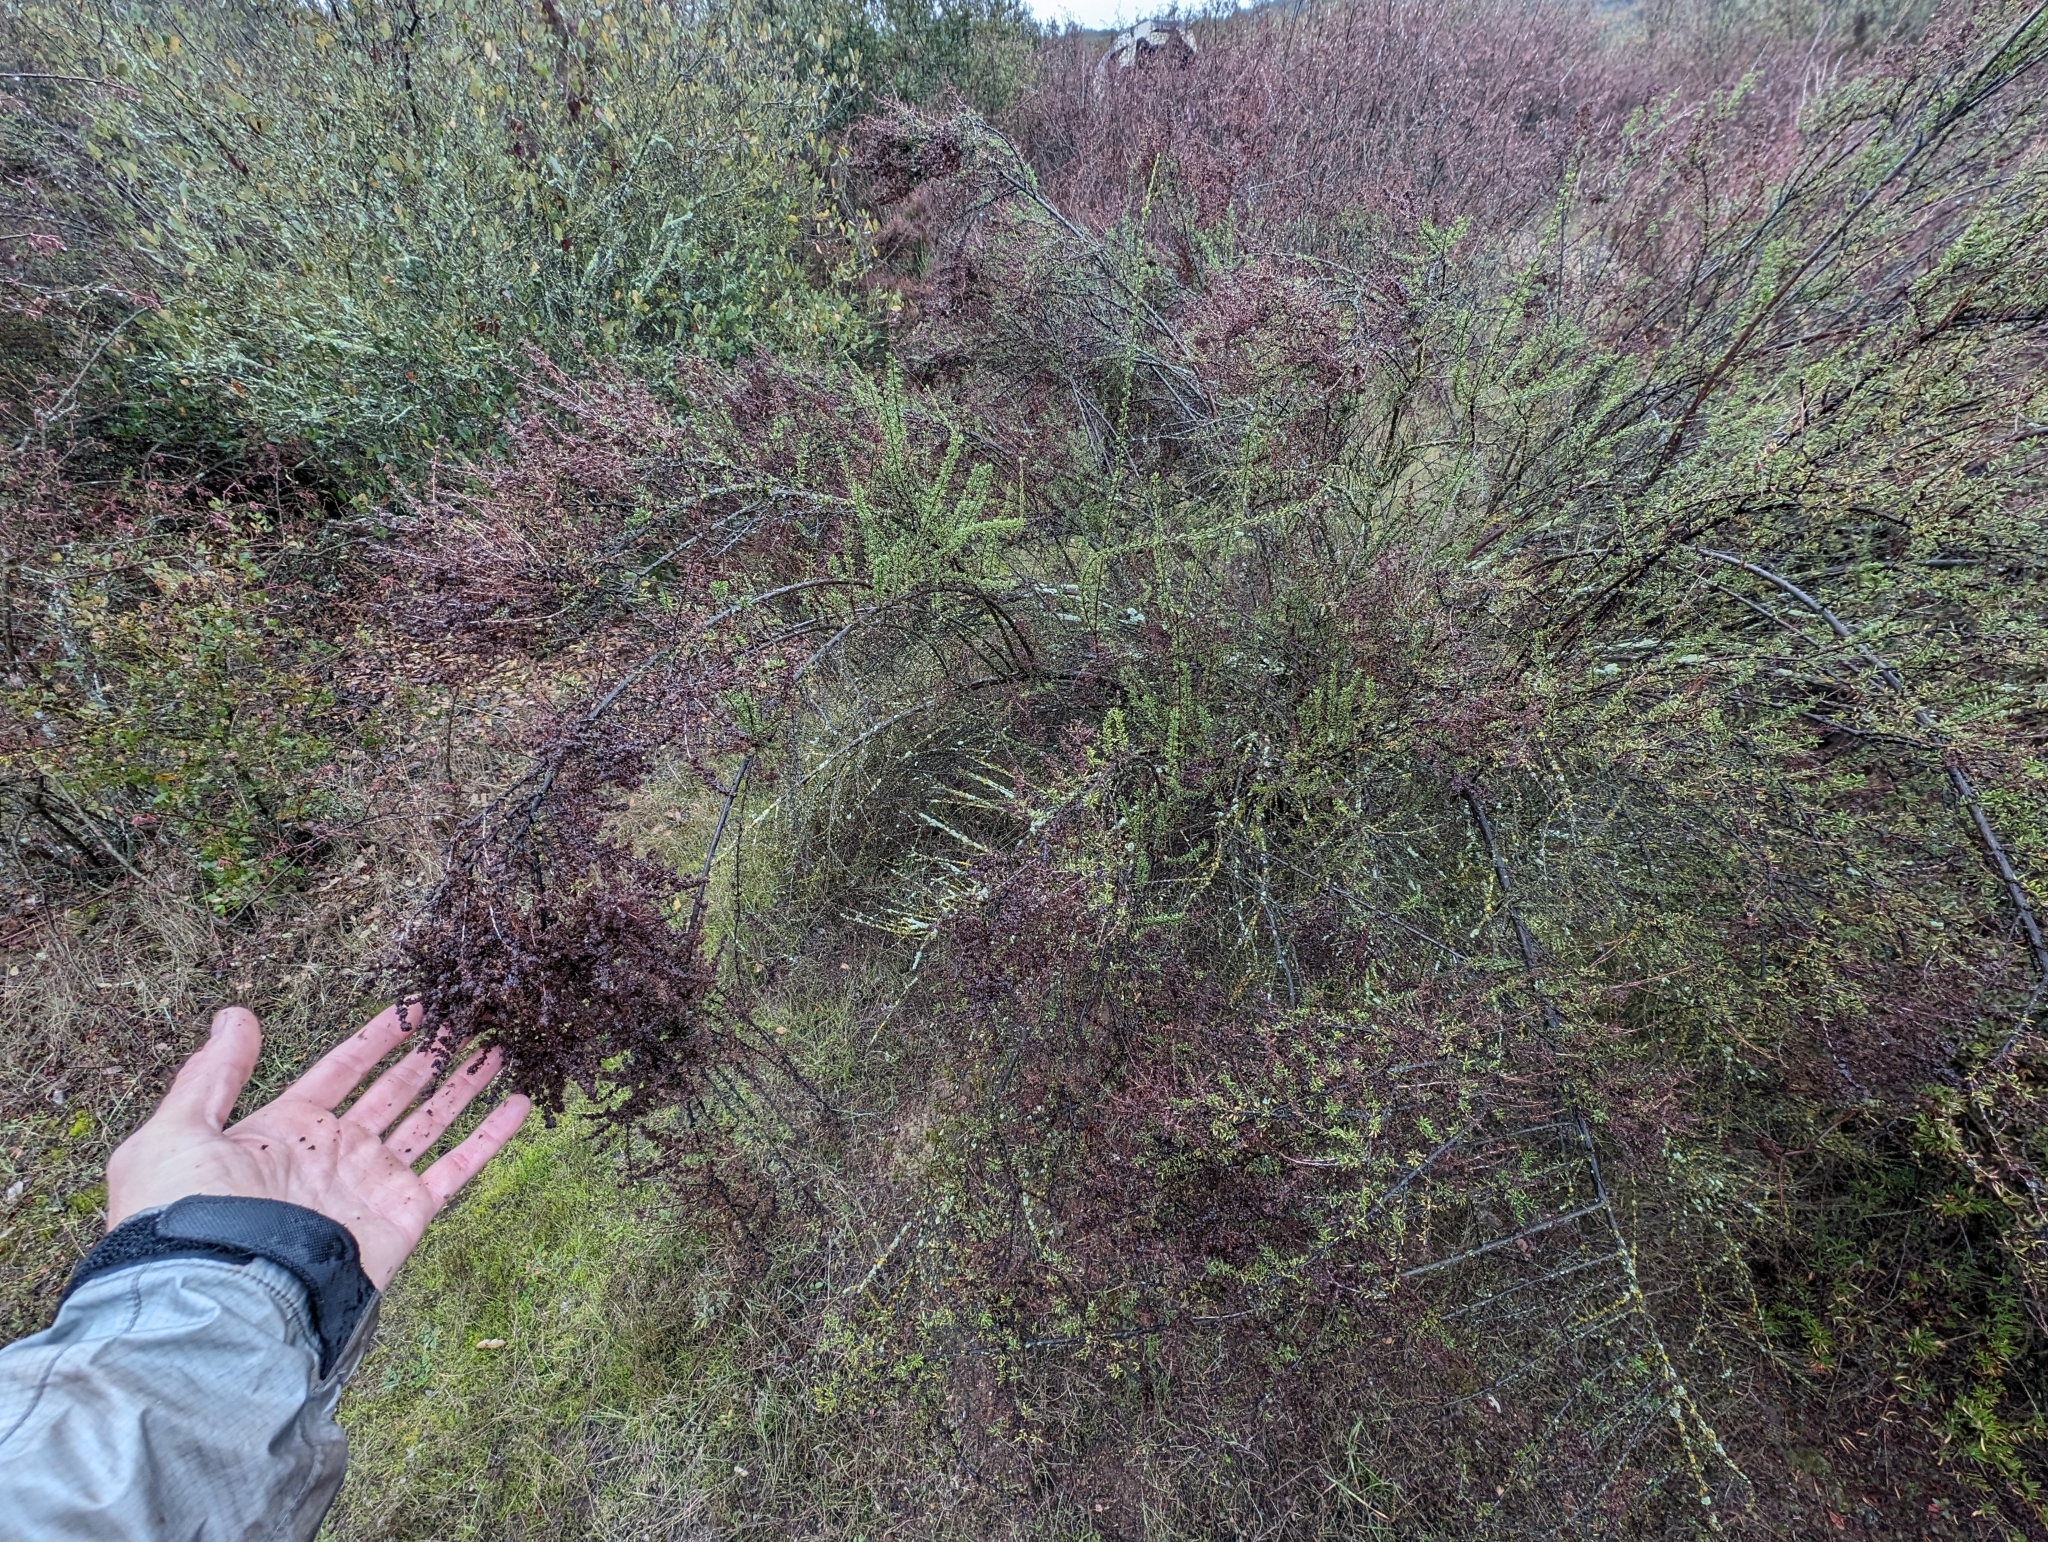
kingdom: Plantae
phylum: Tracheophyta
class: Magnoliopsida
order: Rosales
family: Rosaceae
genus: Adenostoma
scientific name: Adenostoma fasciculatum
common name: Chamise
